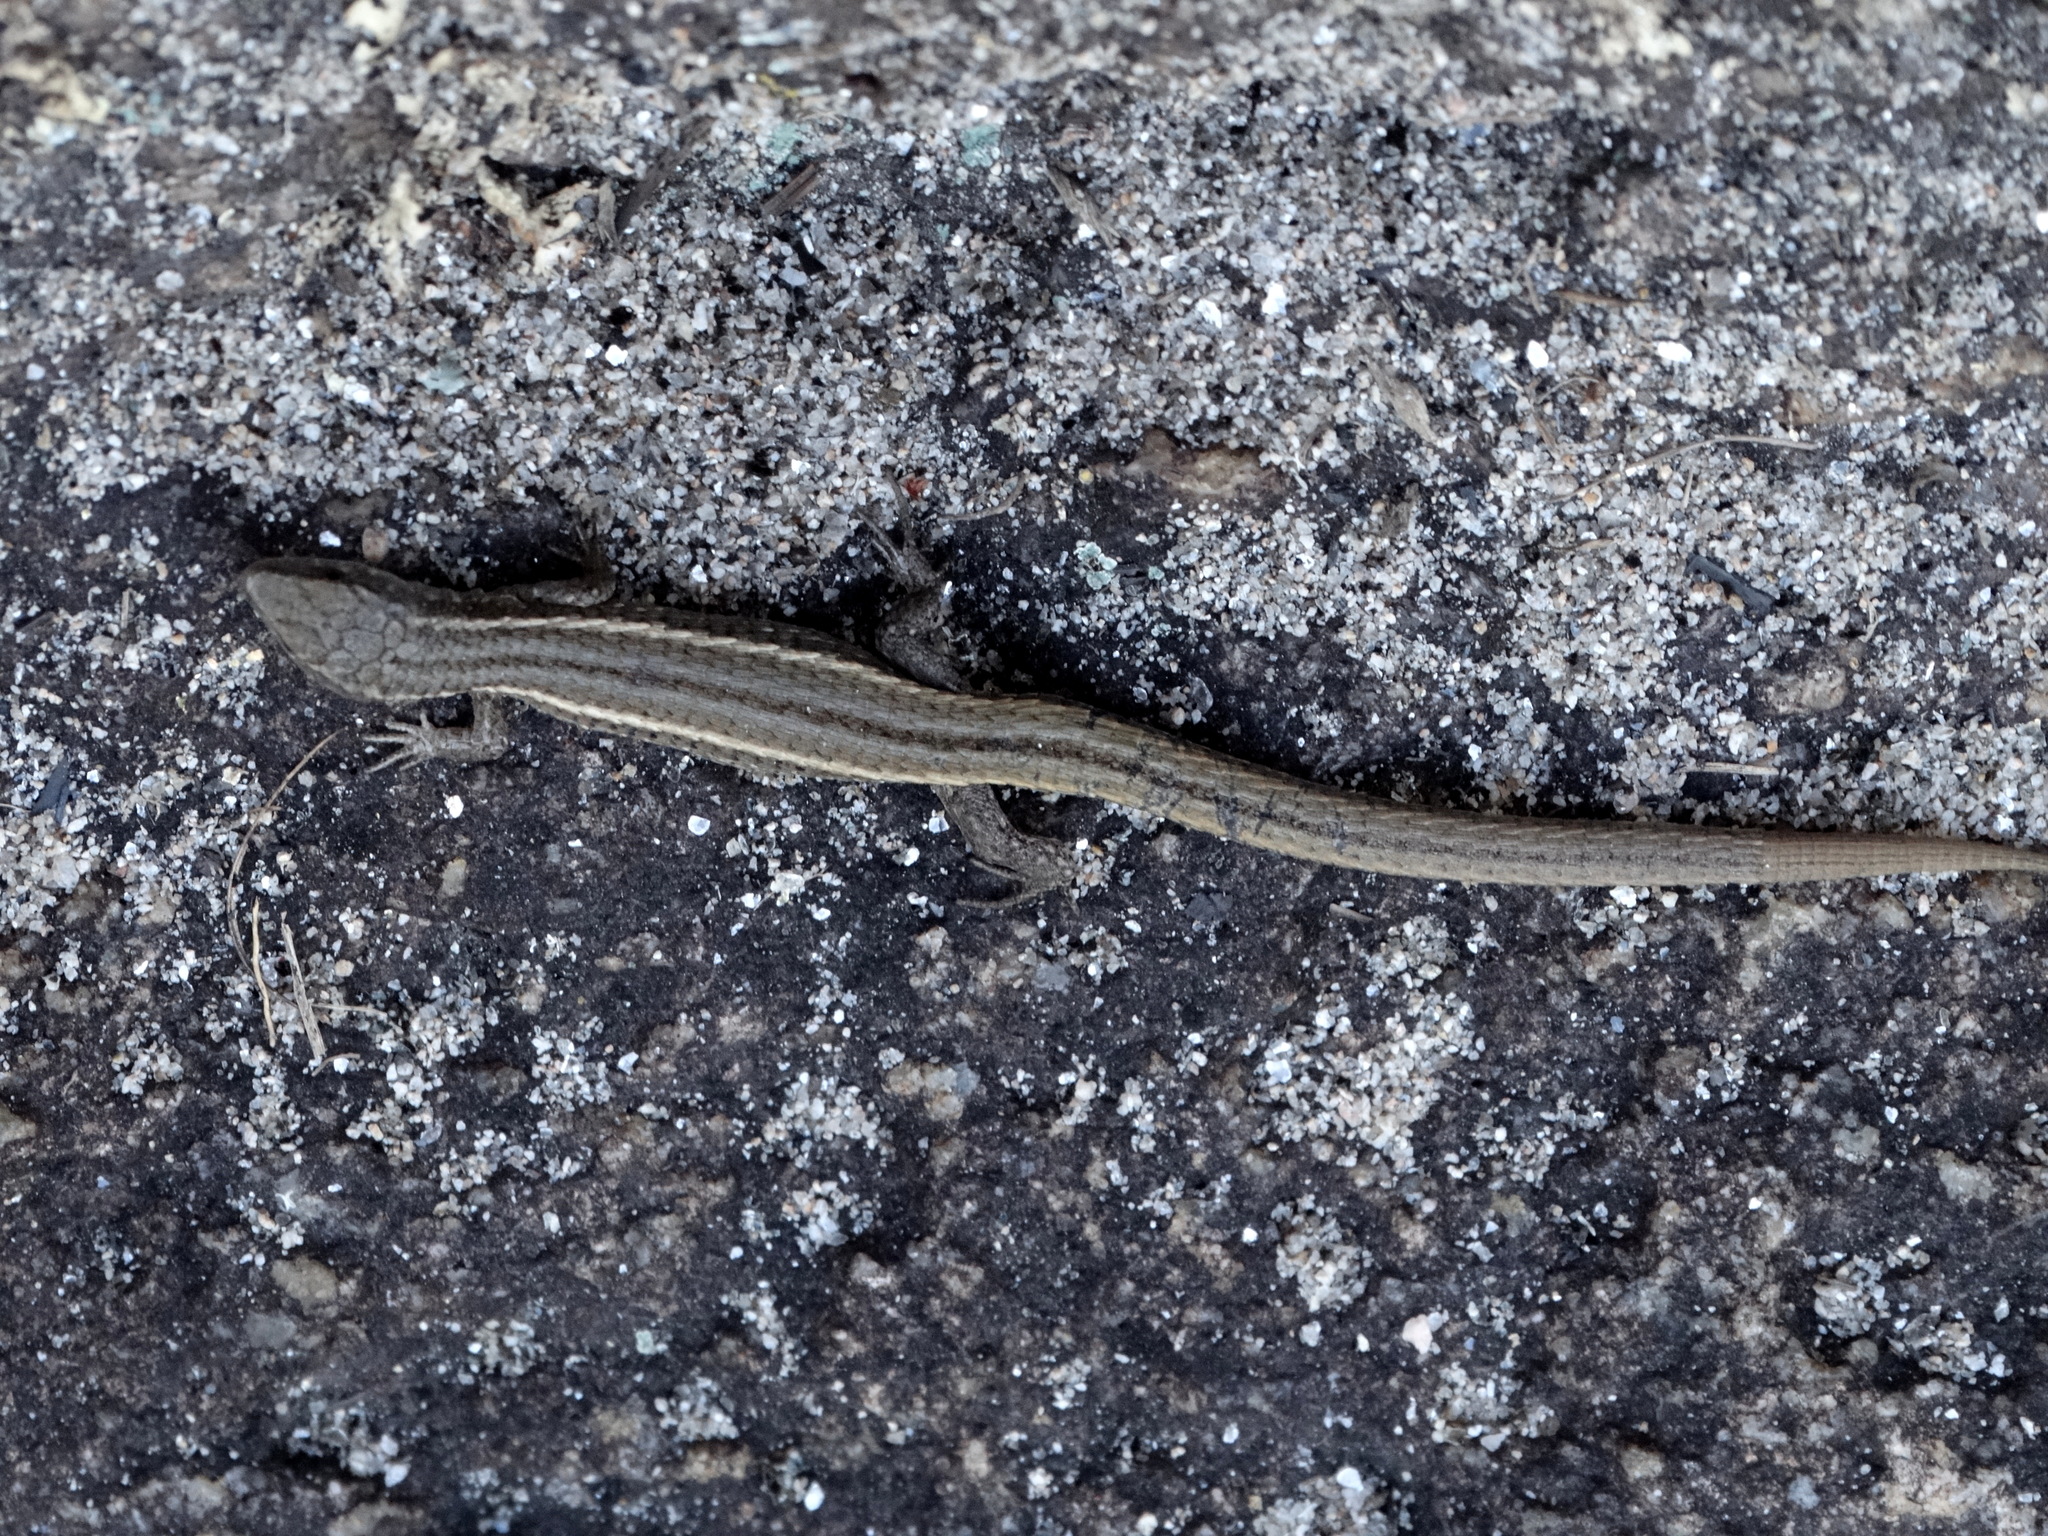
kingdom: Animalia
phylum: Chordata
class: Squamata
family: Gymnophthalmidae
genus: Cercosaura
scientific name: Cercosaura schreibersii
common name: Schreibers' many-fingered teiid
